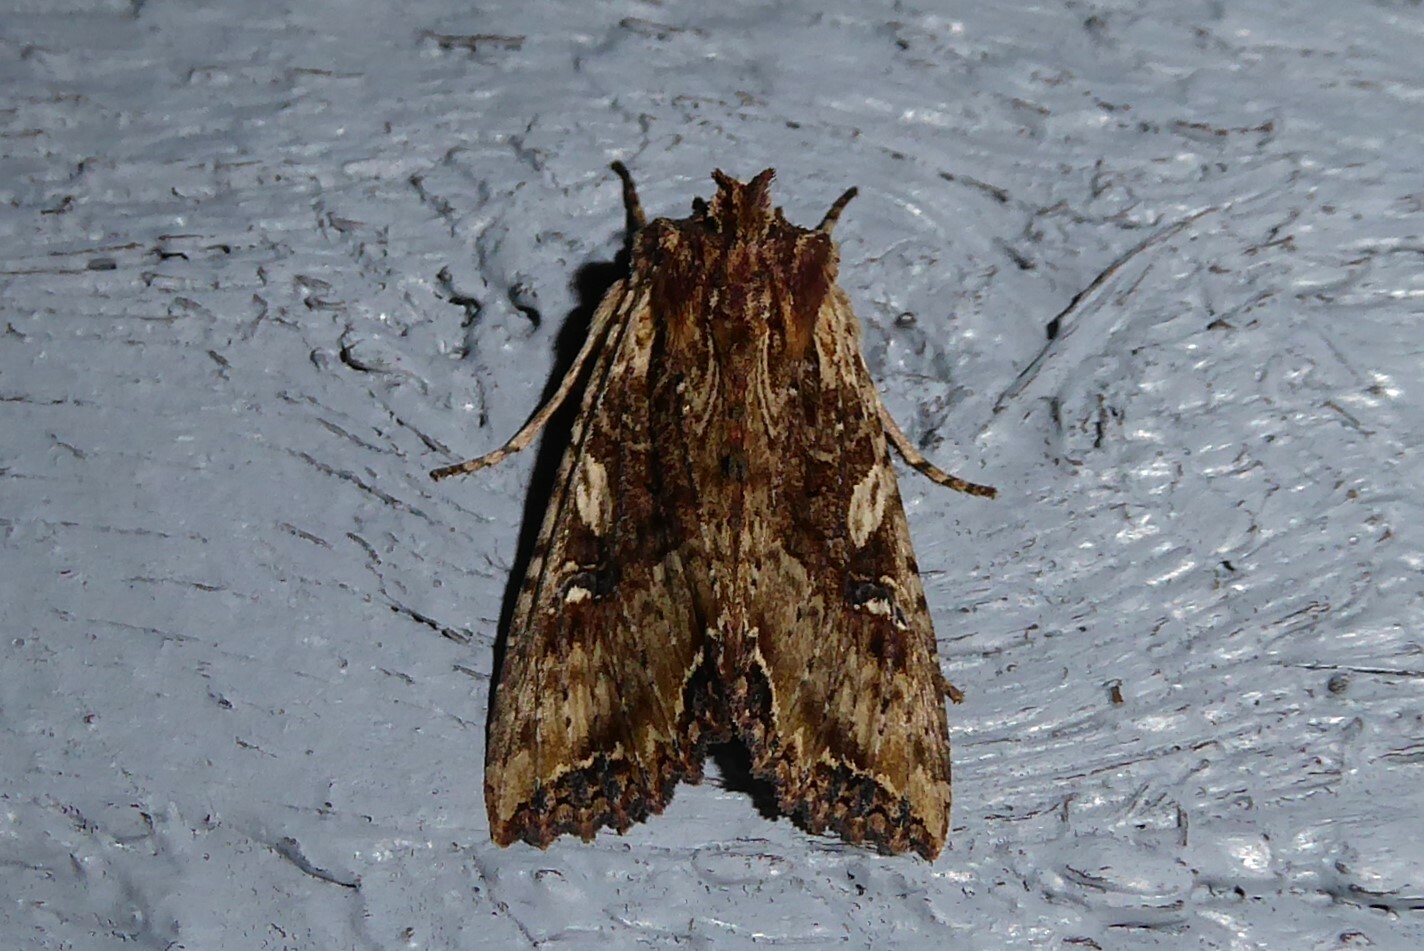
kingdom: Animalia
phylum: Arthropoda
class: Insecta
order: Lepidoptera
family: Noctuidae
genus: Meterana
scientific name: Meterana stipata
